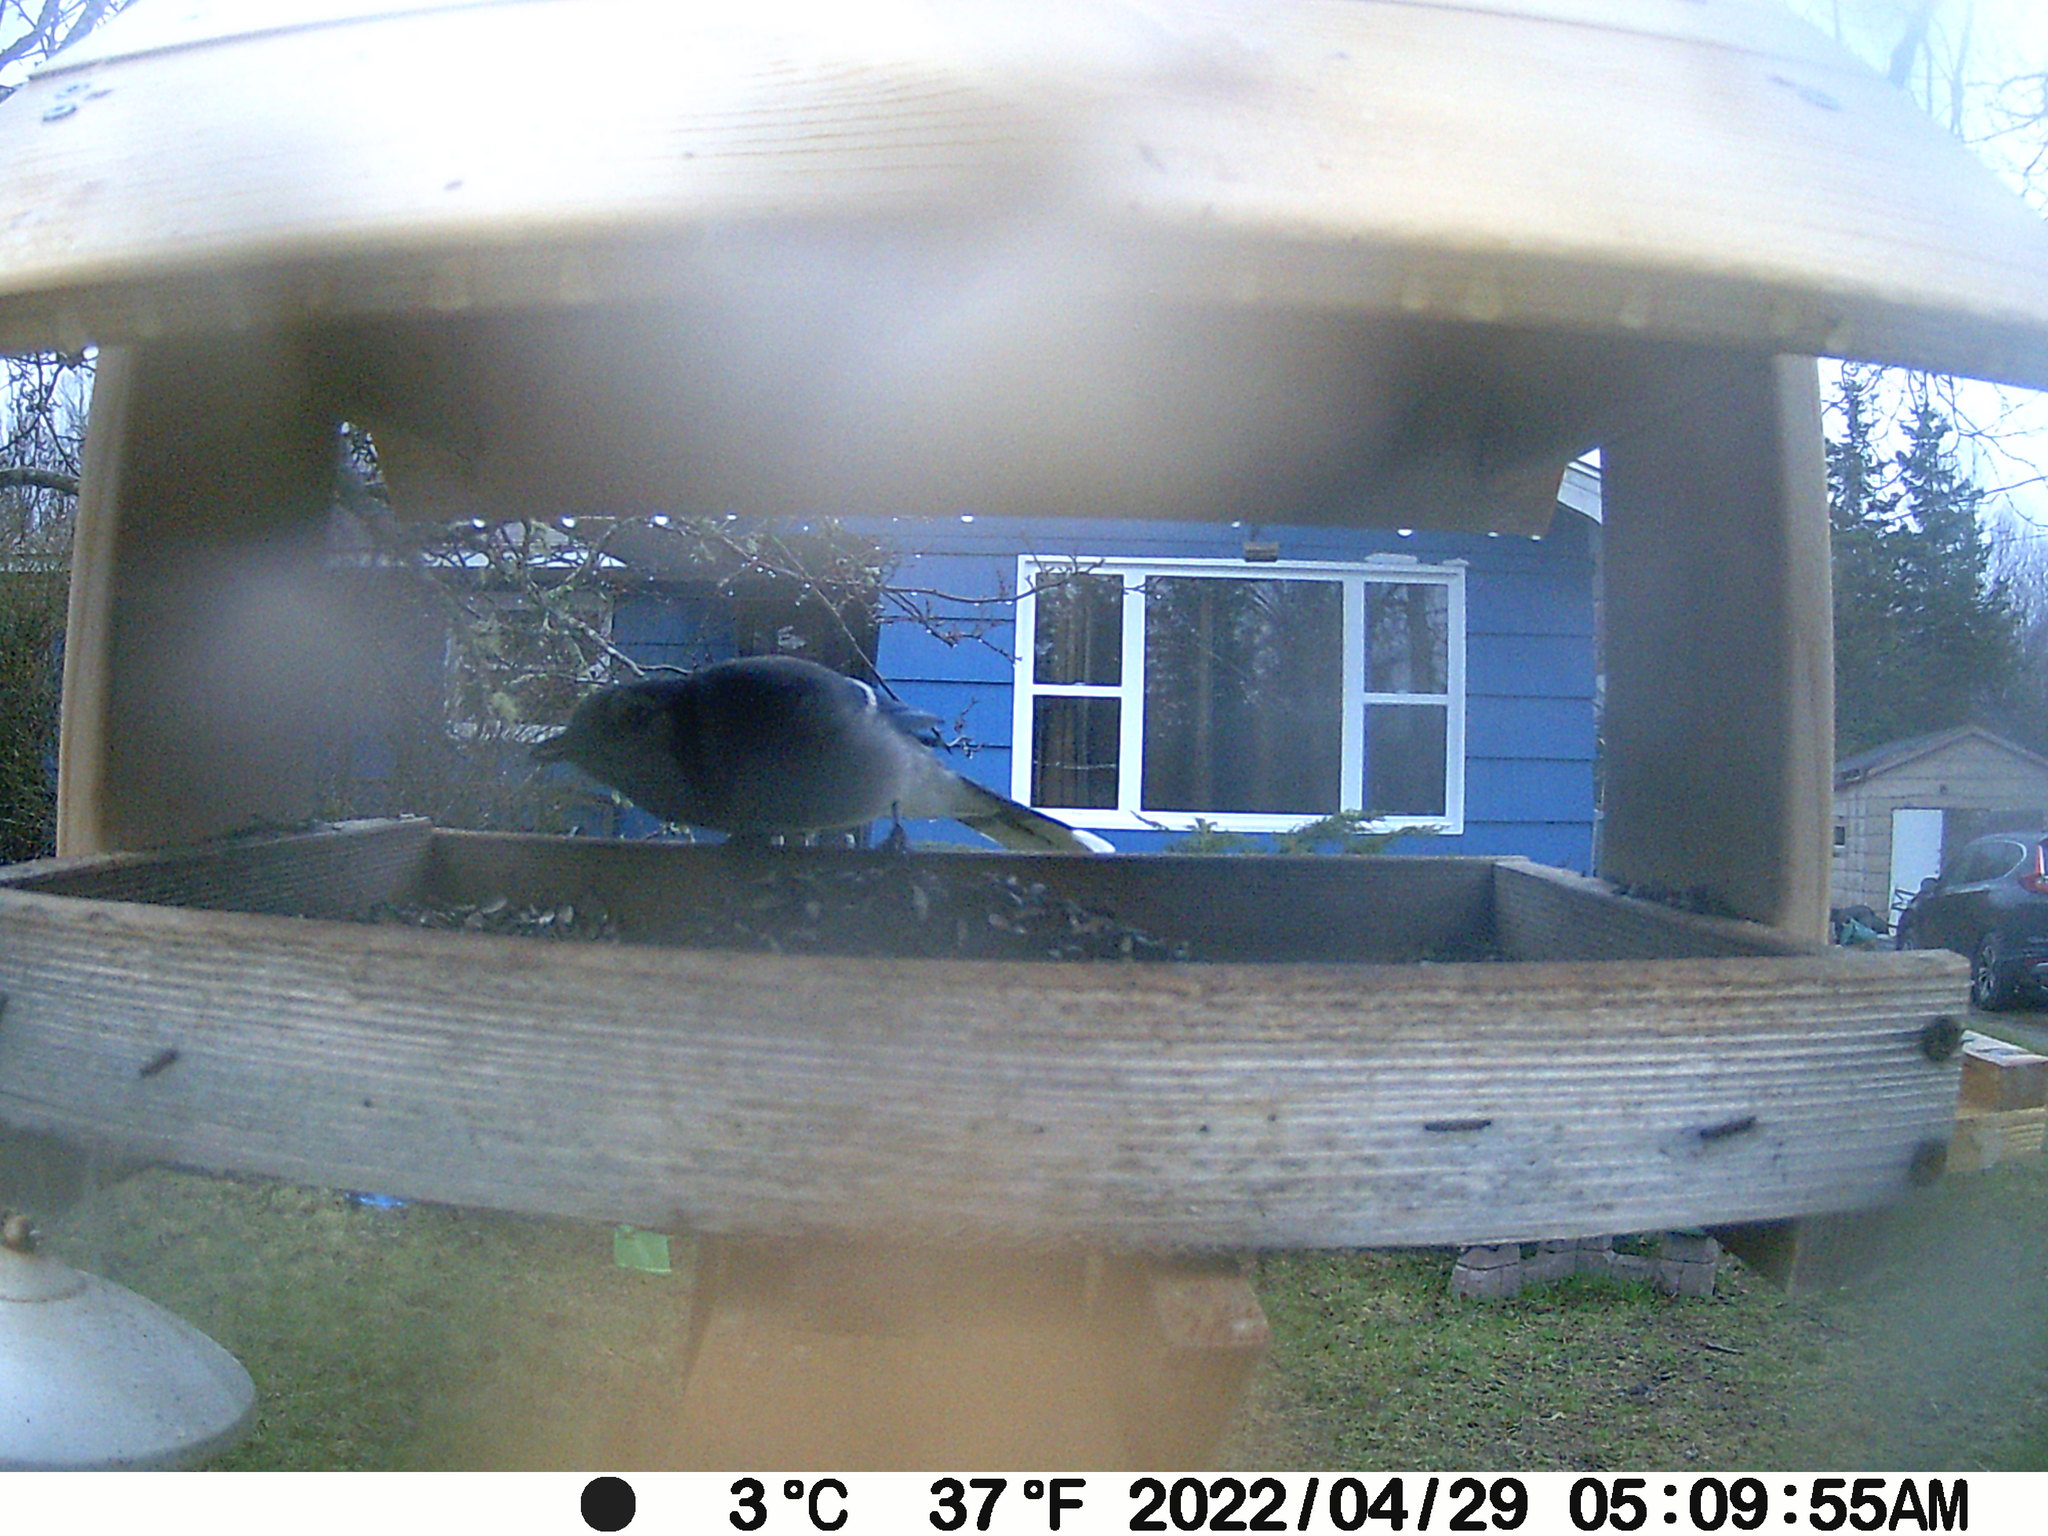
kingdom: Animalia
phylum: Chordata
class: Aves
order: Passeriformes
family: Corvidae
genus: Cyanocitta
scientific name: Cyanocitta cristata
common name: Blue jay
